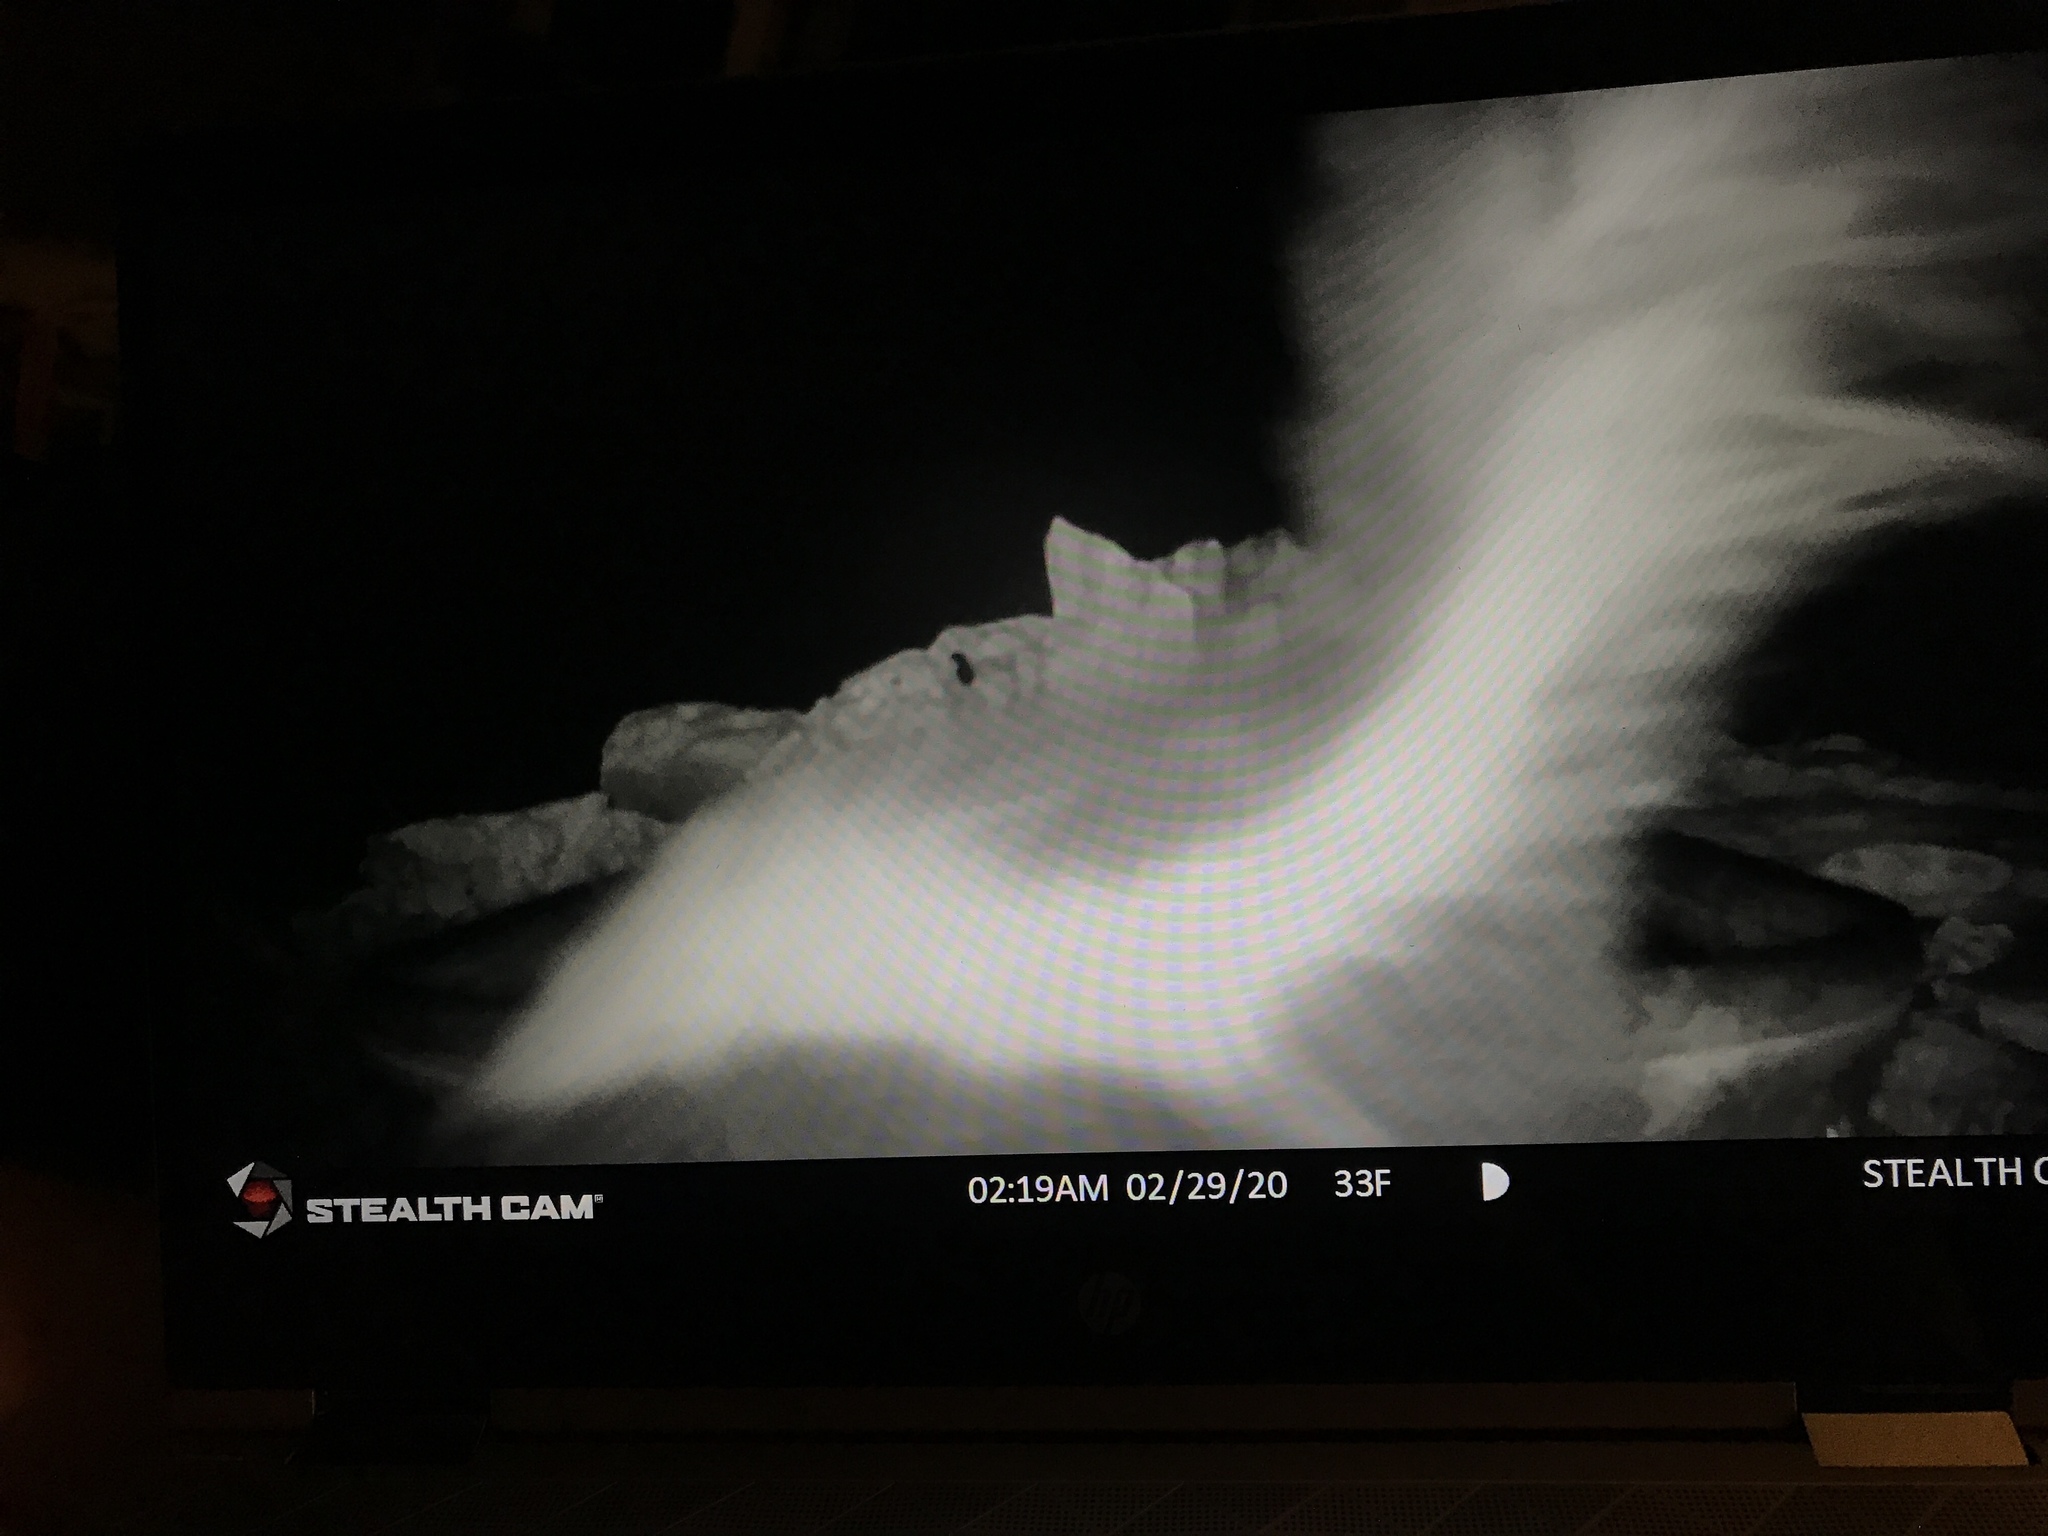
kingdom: Animalia
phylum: Chordata
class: Mammalia
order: Carnivora
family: Mephitidae
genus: Mephitis
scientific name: Mephitis mephitis
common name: Striped skunk
